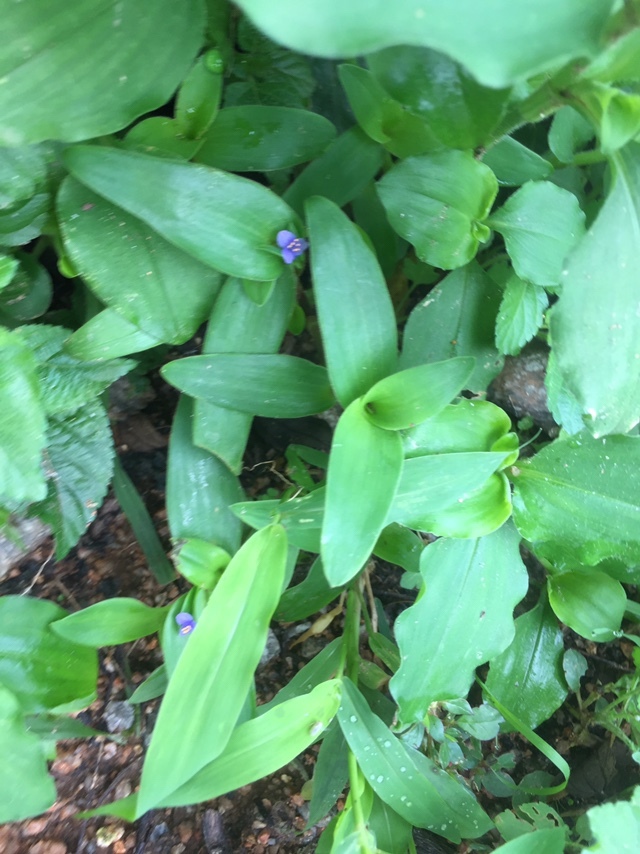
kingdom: Plantae
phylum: Tracheophyta
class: Liliopsida
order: Commelinales
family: Commelinaceae
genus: Cyanotis
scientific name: Cyanotis cristata
